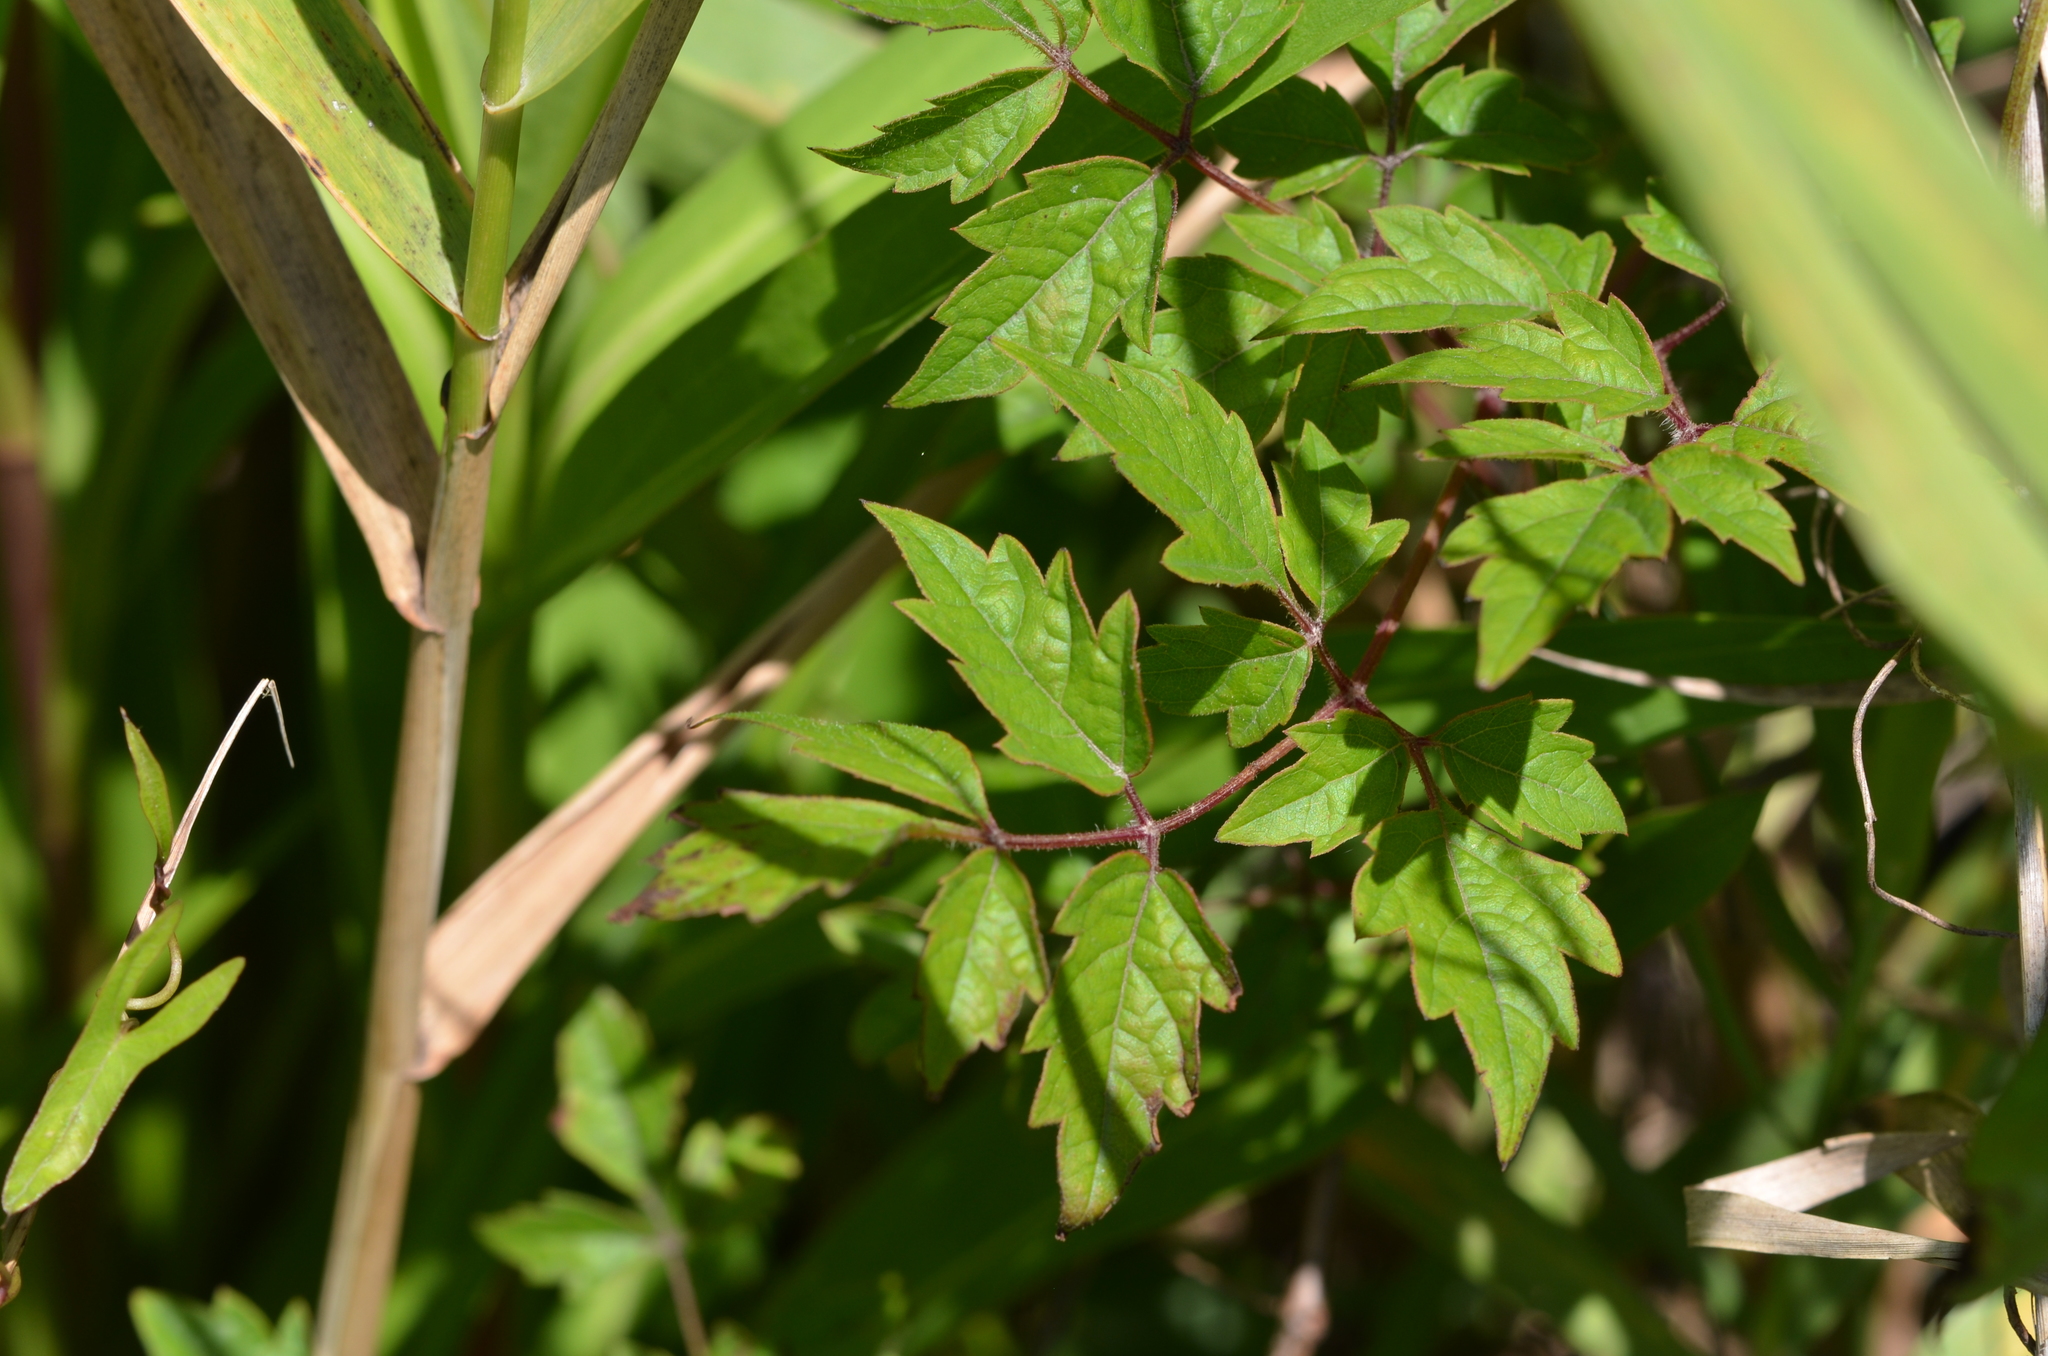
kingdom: Plantae
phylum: Tracheophyta
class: Magnoliopsida
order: Vitales
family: Vitaceae
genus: Nekemias
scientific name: Nekemias arborea
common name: Peppervine
